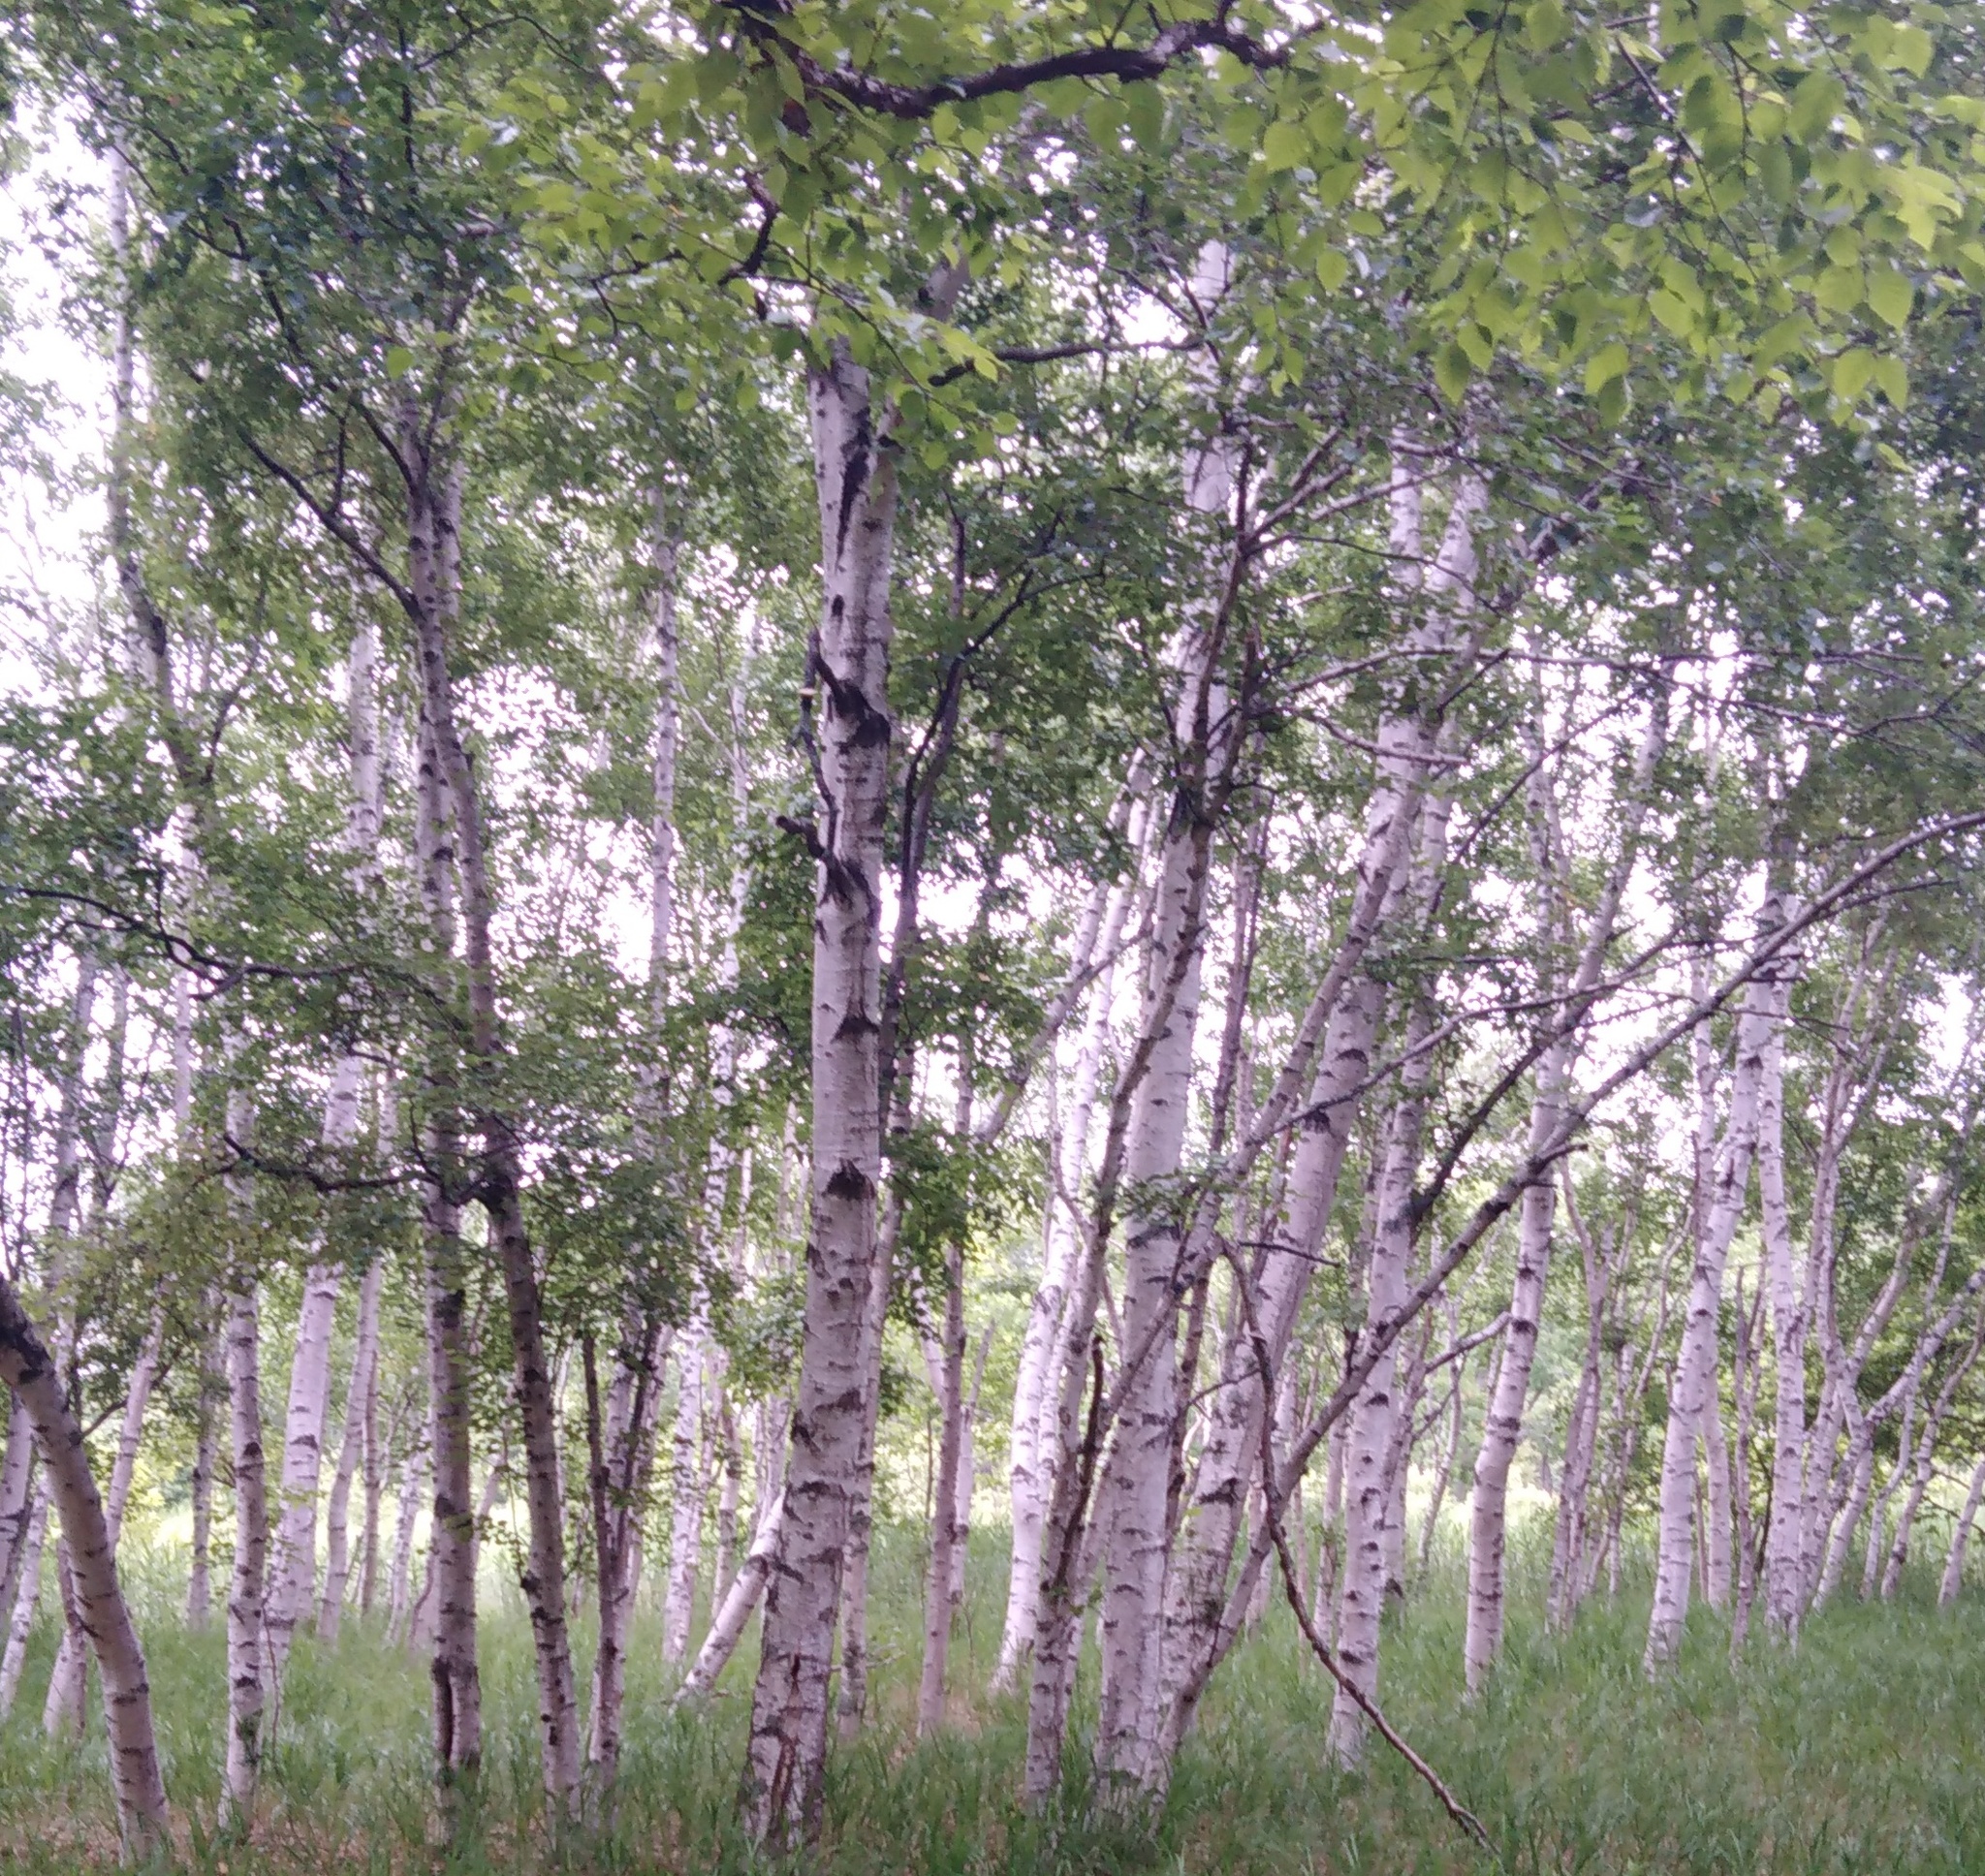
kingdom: Plantae
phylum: Tracheophyta
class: Magnoliopsida
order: Fagales
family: Betulaceae
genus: Betula
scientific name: Betula pendula
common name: Silver birch
